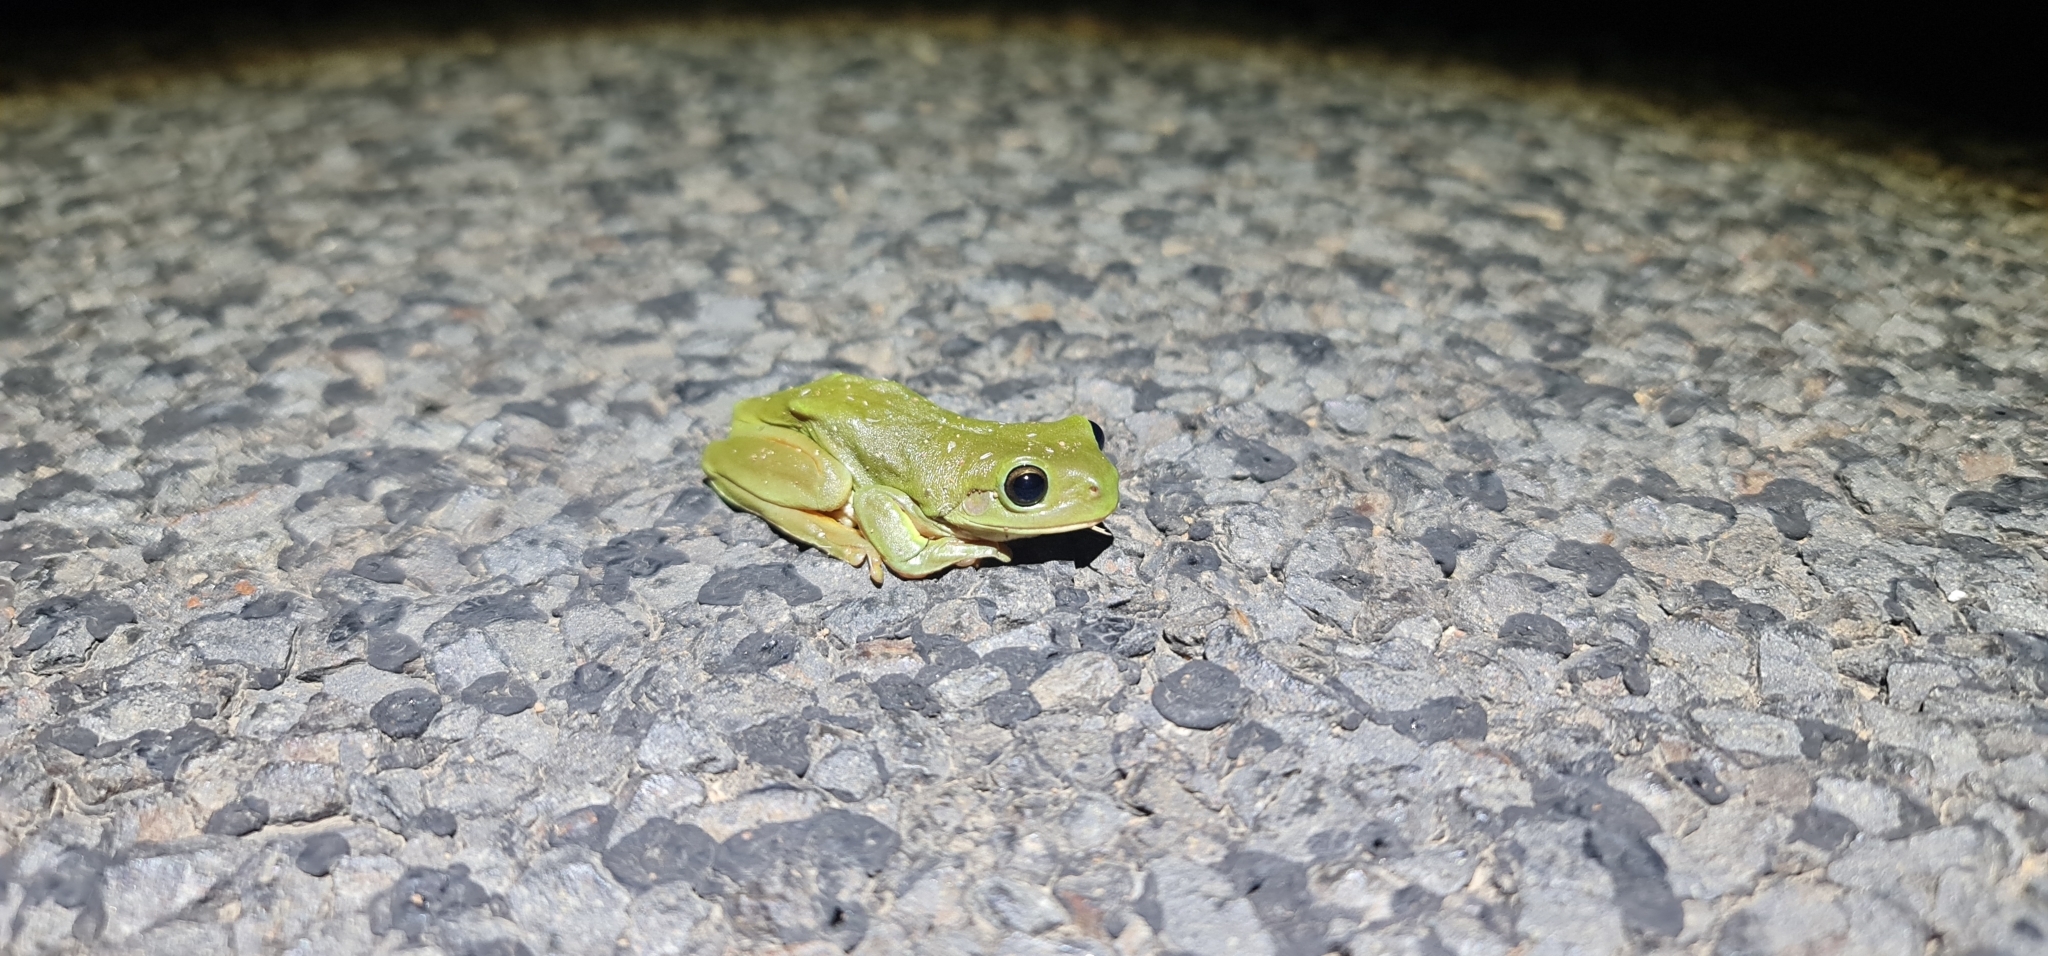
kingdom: Animalia
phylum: Chordata
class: Amphibia
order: Anura
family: Pelodryadidae
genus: Ranoidea
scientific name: Ranoidea caerulea
